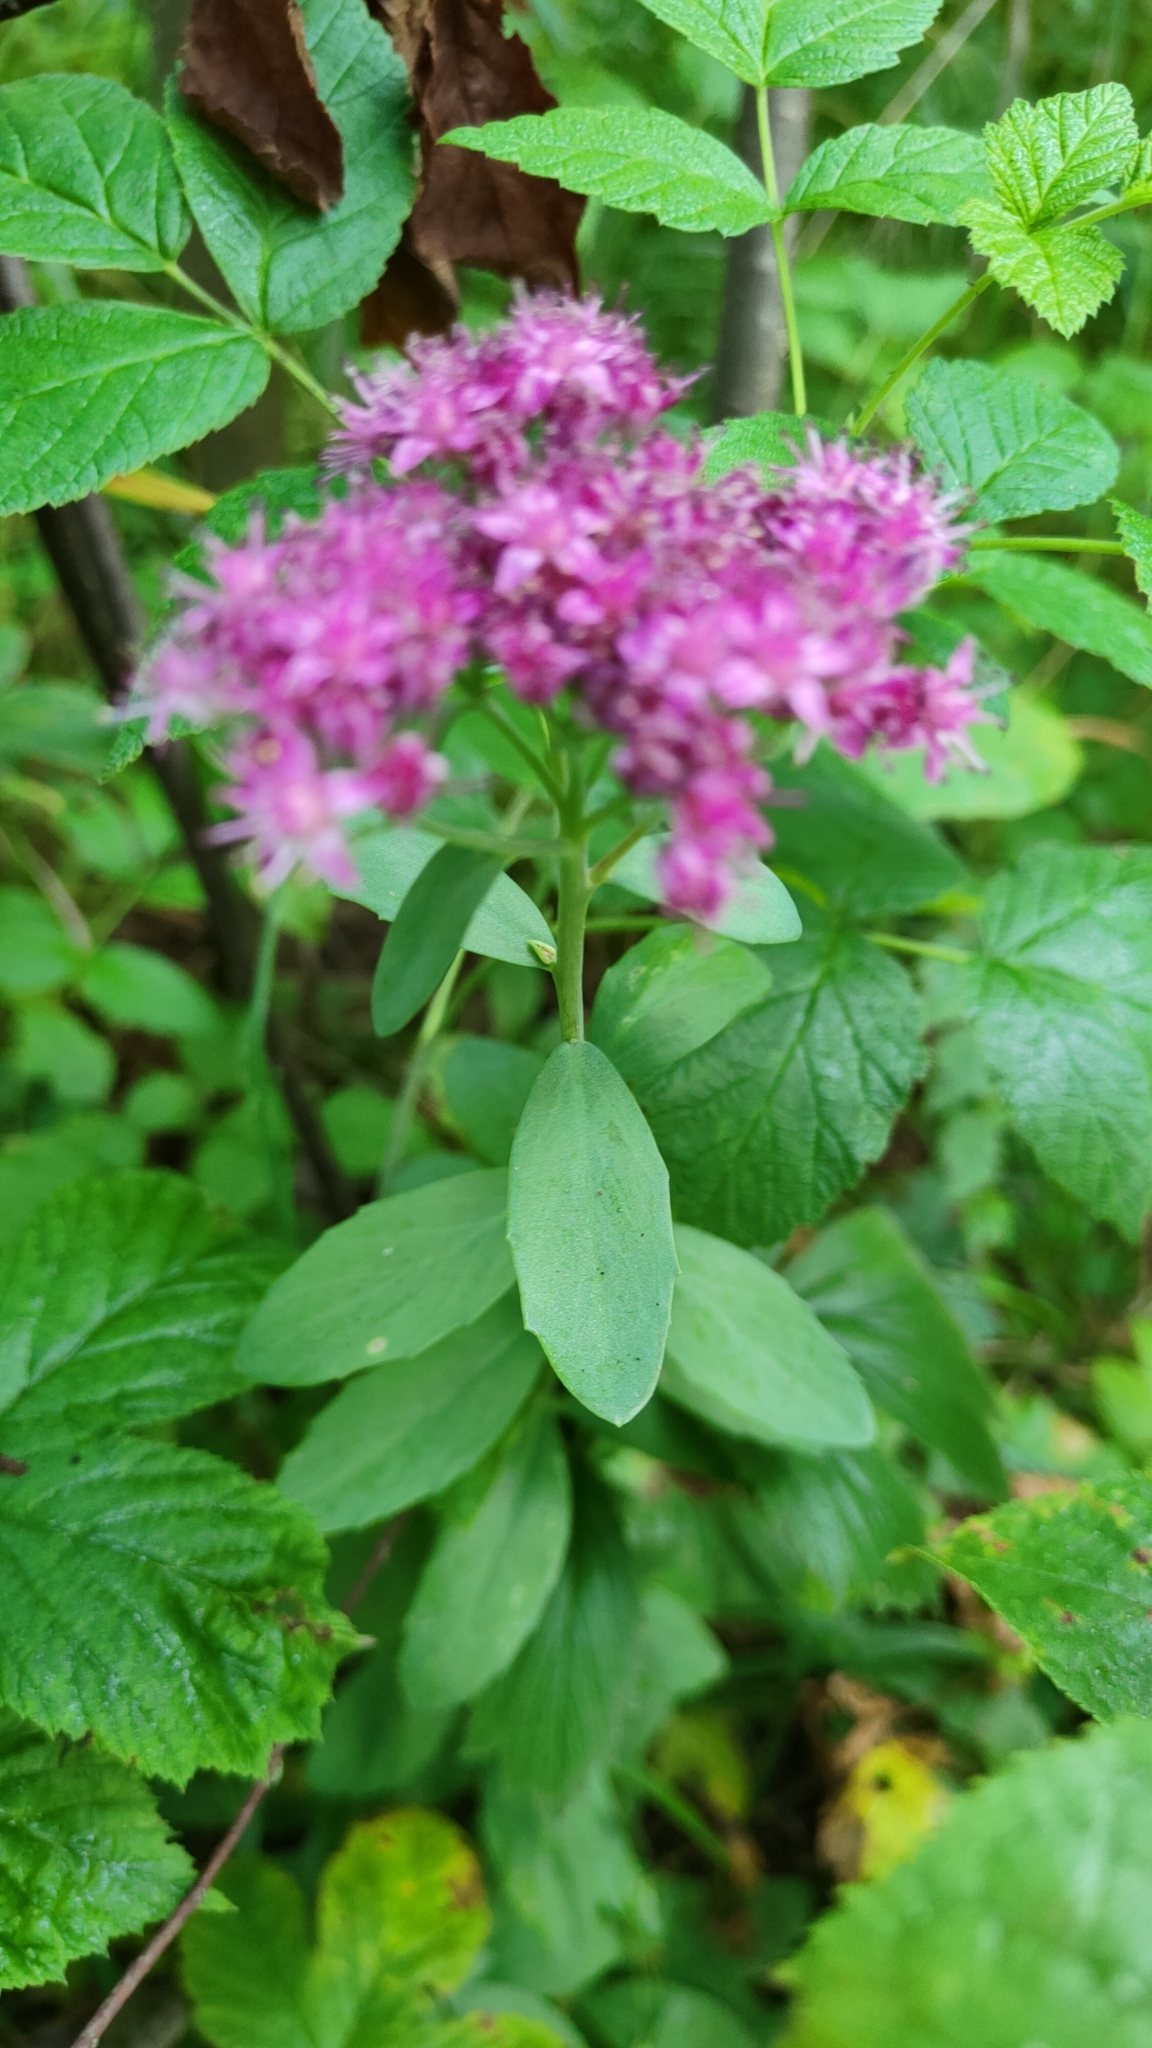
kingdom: Plantae
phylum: Tracheophyta
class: Magnoliopsida
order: Saxifragales
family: Crassulaceae
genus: Hylotelephium
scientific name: Hylotelephium telephium
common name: Live-forever
